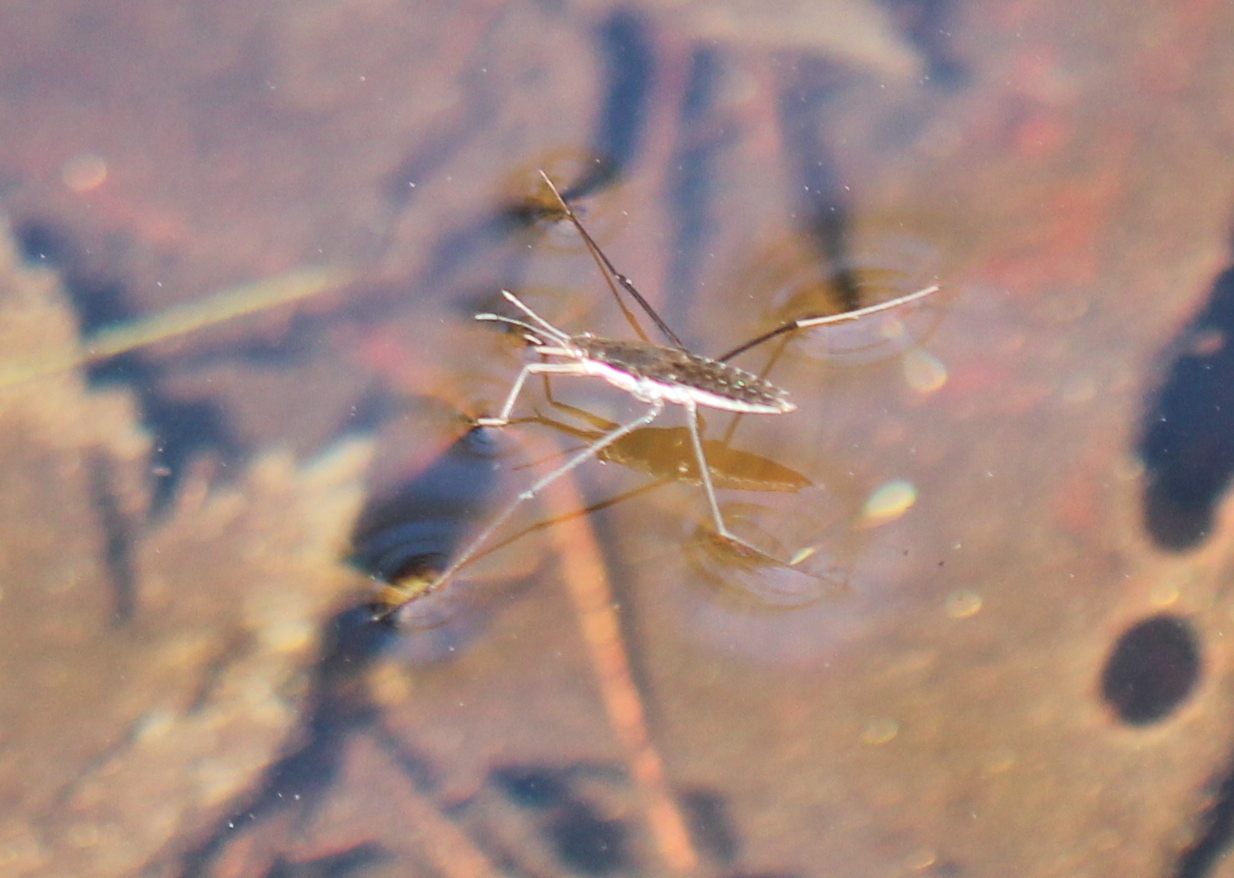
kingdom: Animalia
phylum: Arthropoda
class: Insecta
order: Hemiptera
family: Gerridae
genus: Aquarius
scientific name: Aquarius remigis
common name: Common water strider
